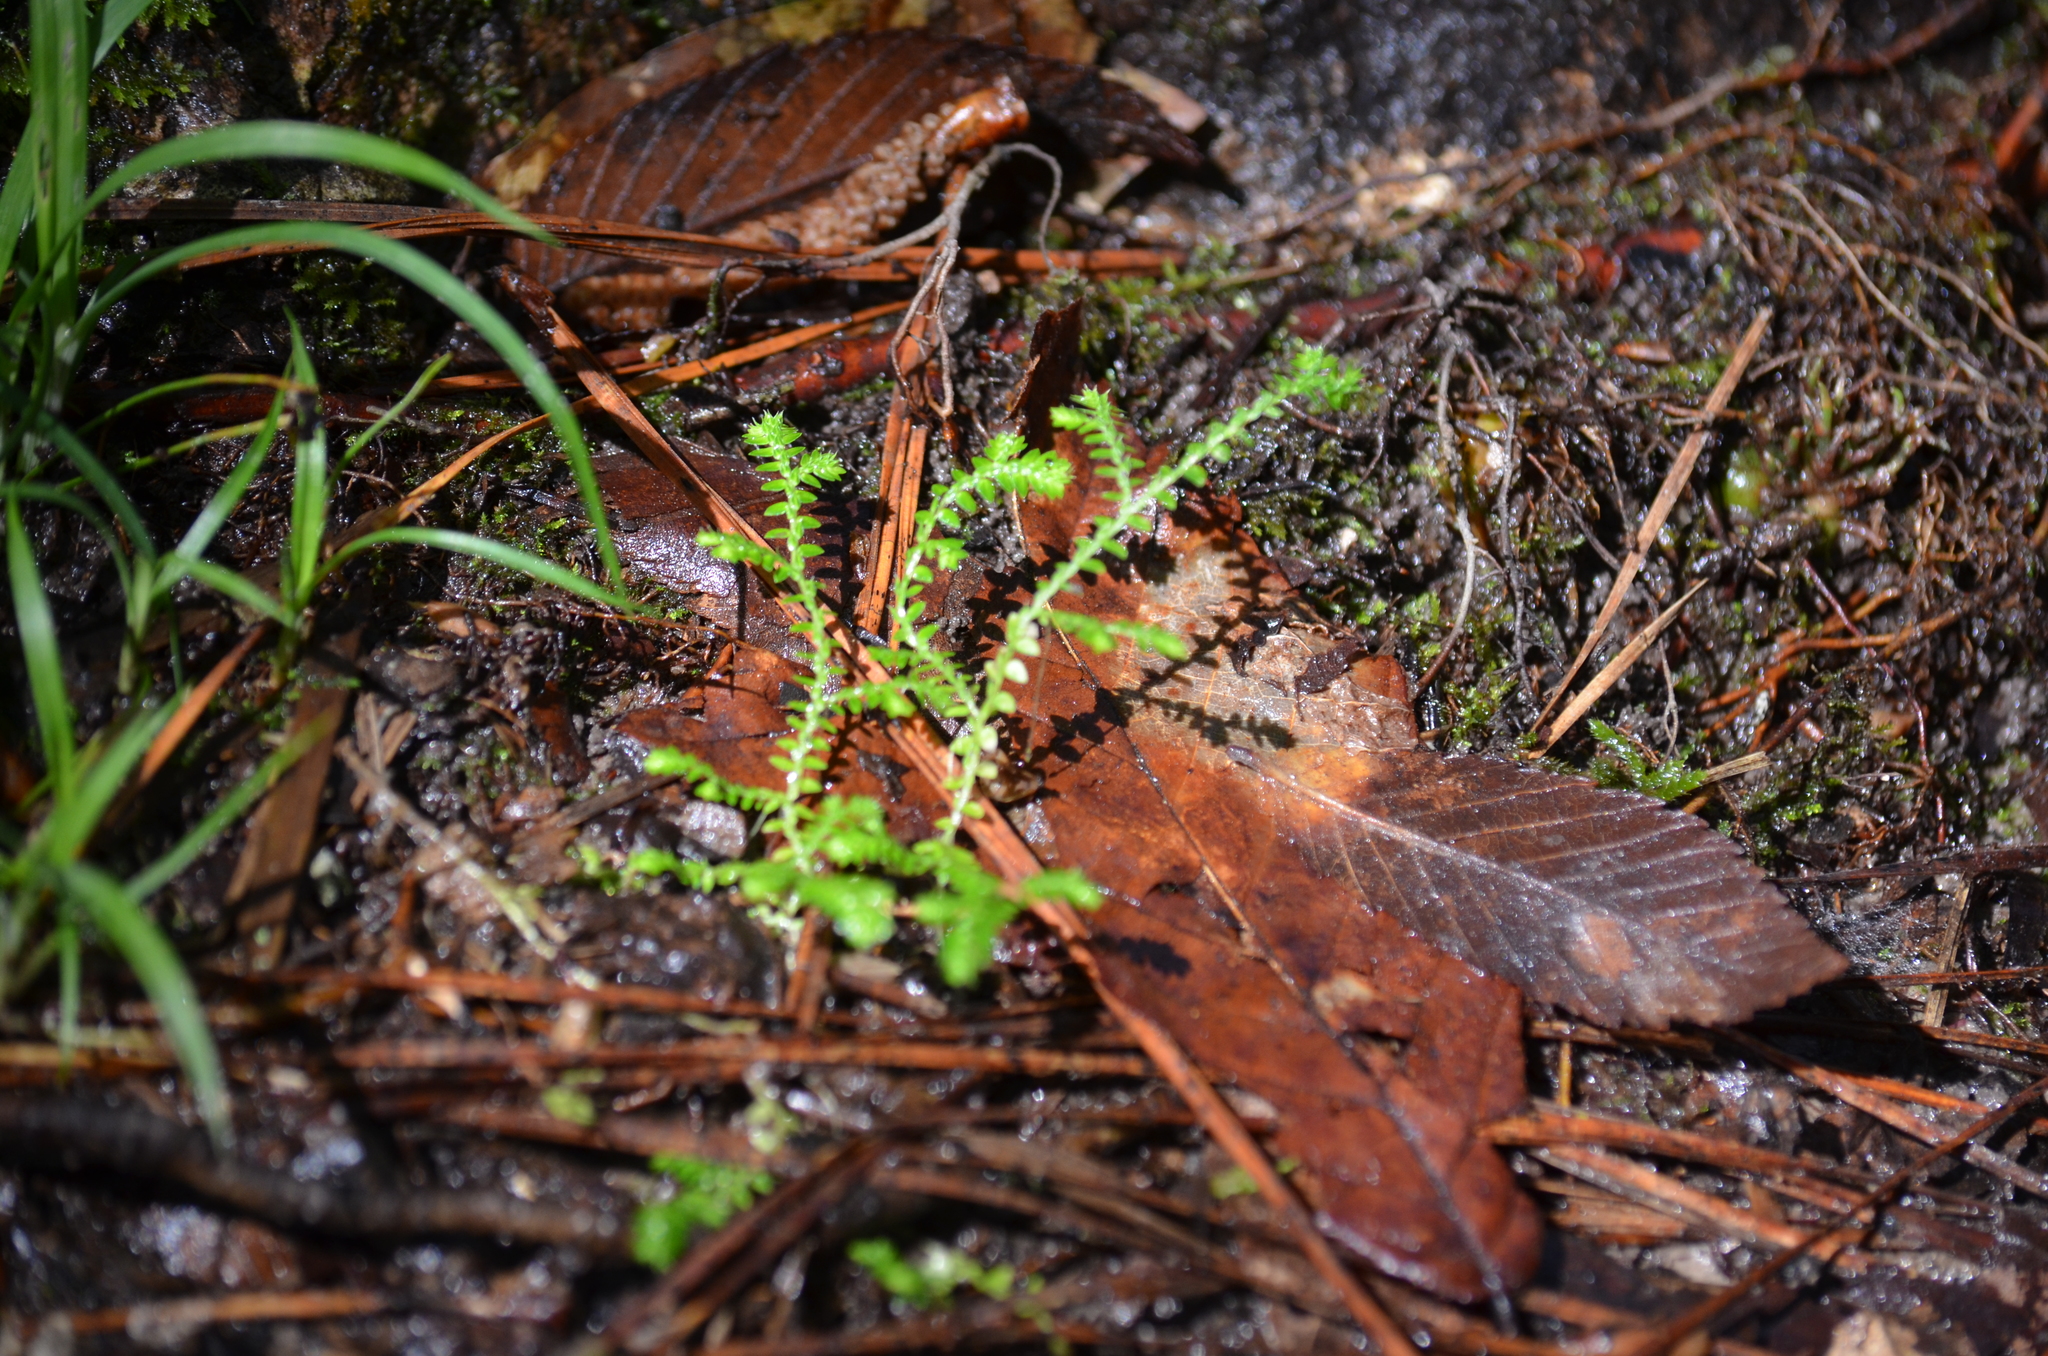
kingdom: Plantae
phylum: Tracheophyta
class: Lycopodiopsida
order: Selaginellales
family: Selaginellaceae
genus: Selaginella
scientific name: Selaginella ludoviciana
